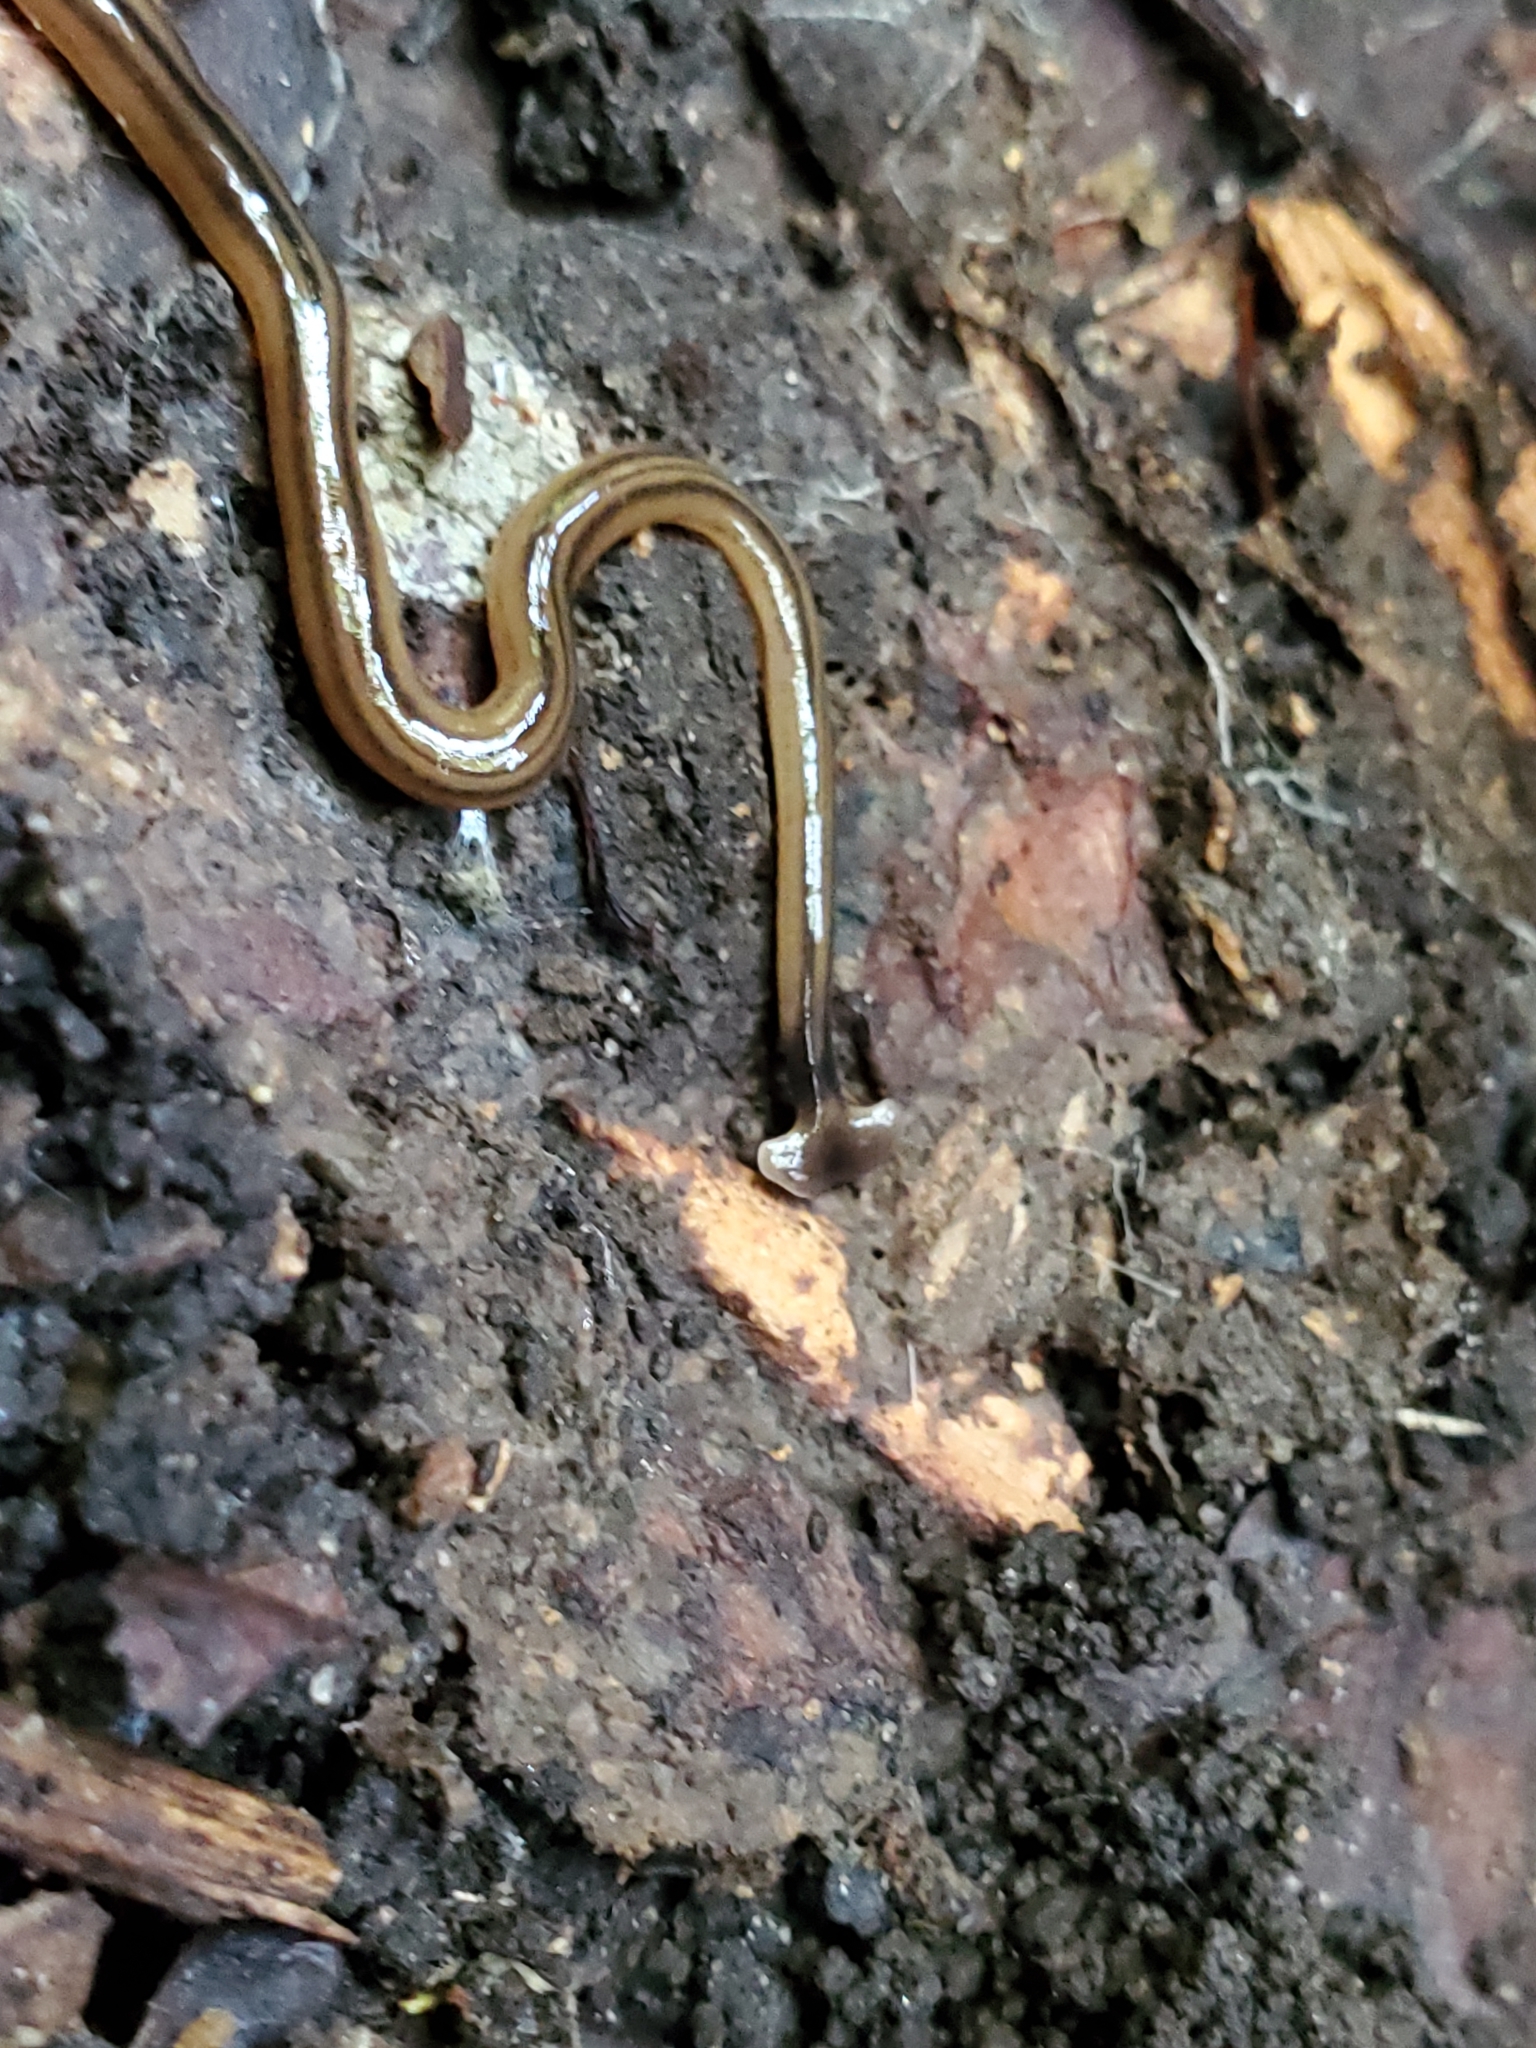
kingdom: Animalia
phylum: Platyhelminthes
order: Tricladida
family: Geoplanidae
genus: Bipalium
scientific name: Bipalium kewense
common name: Hammerhead flatworm
